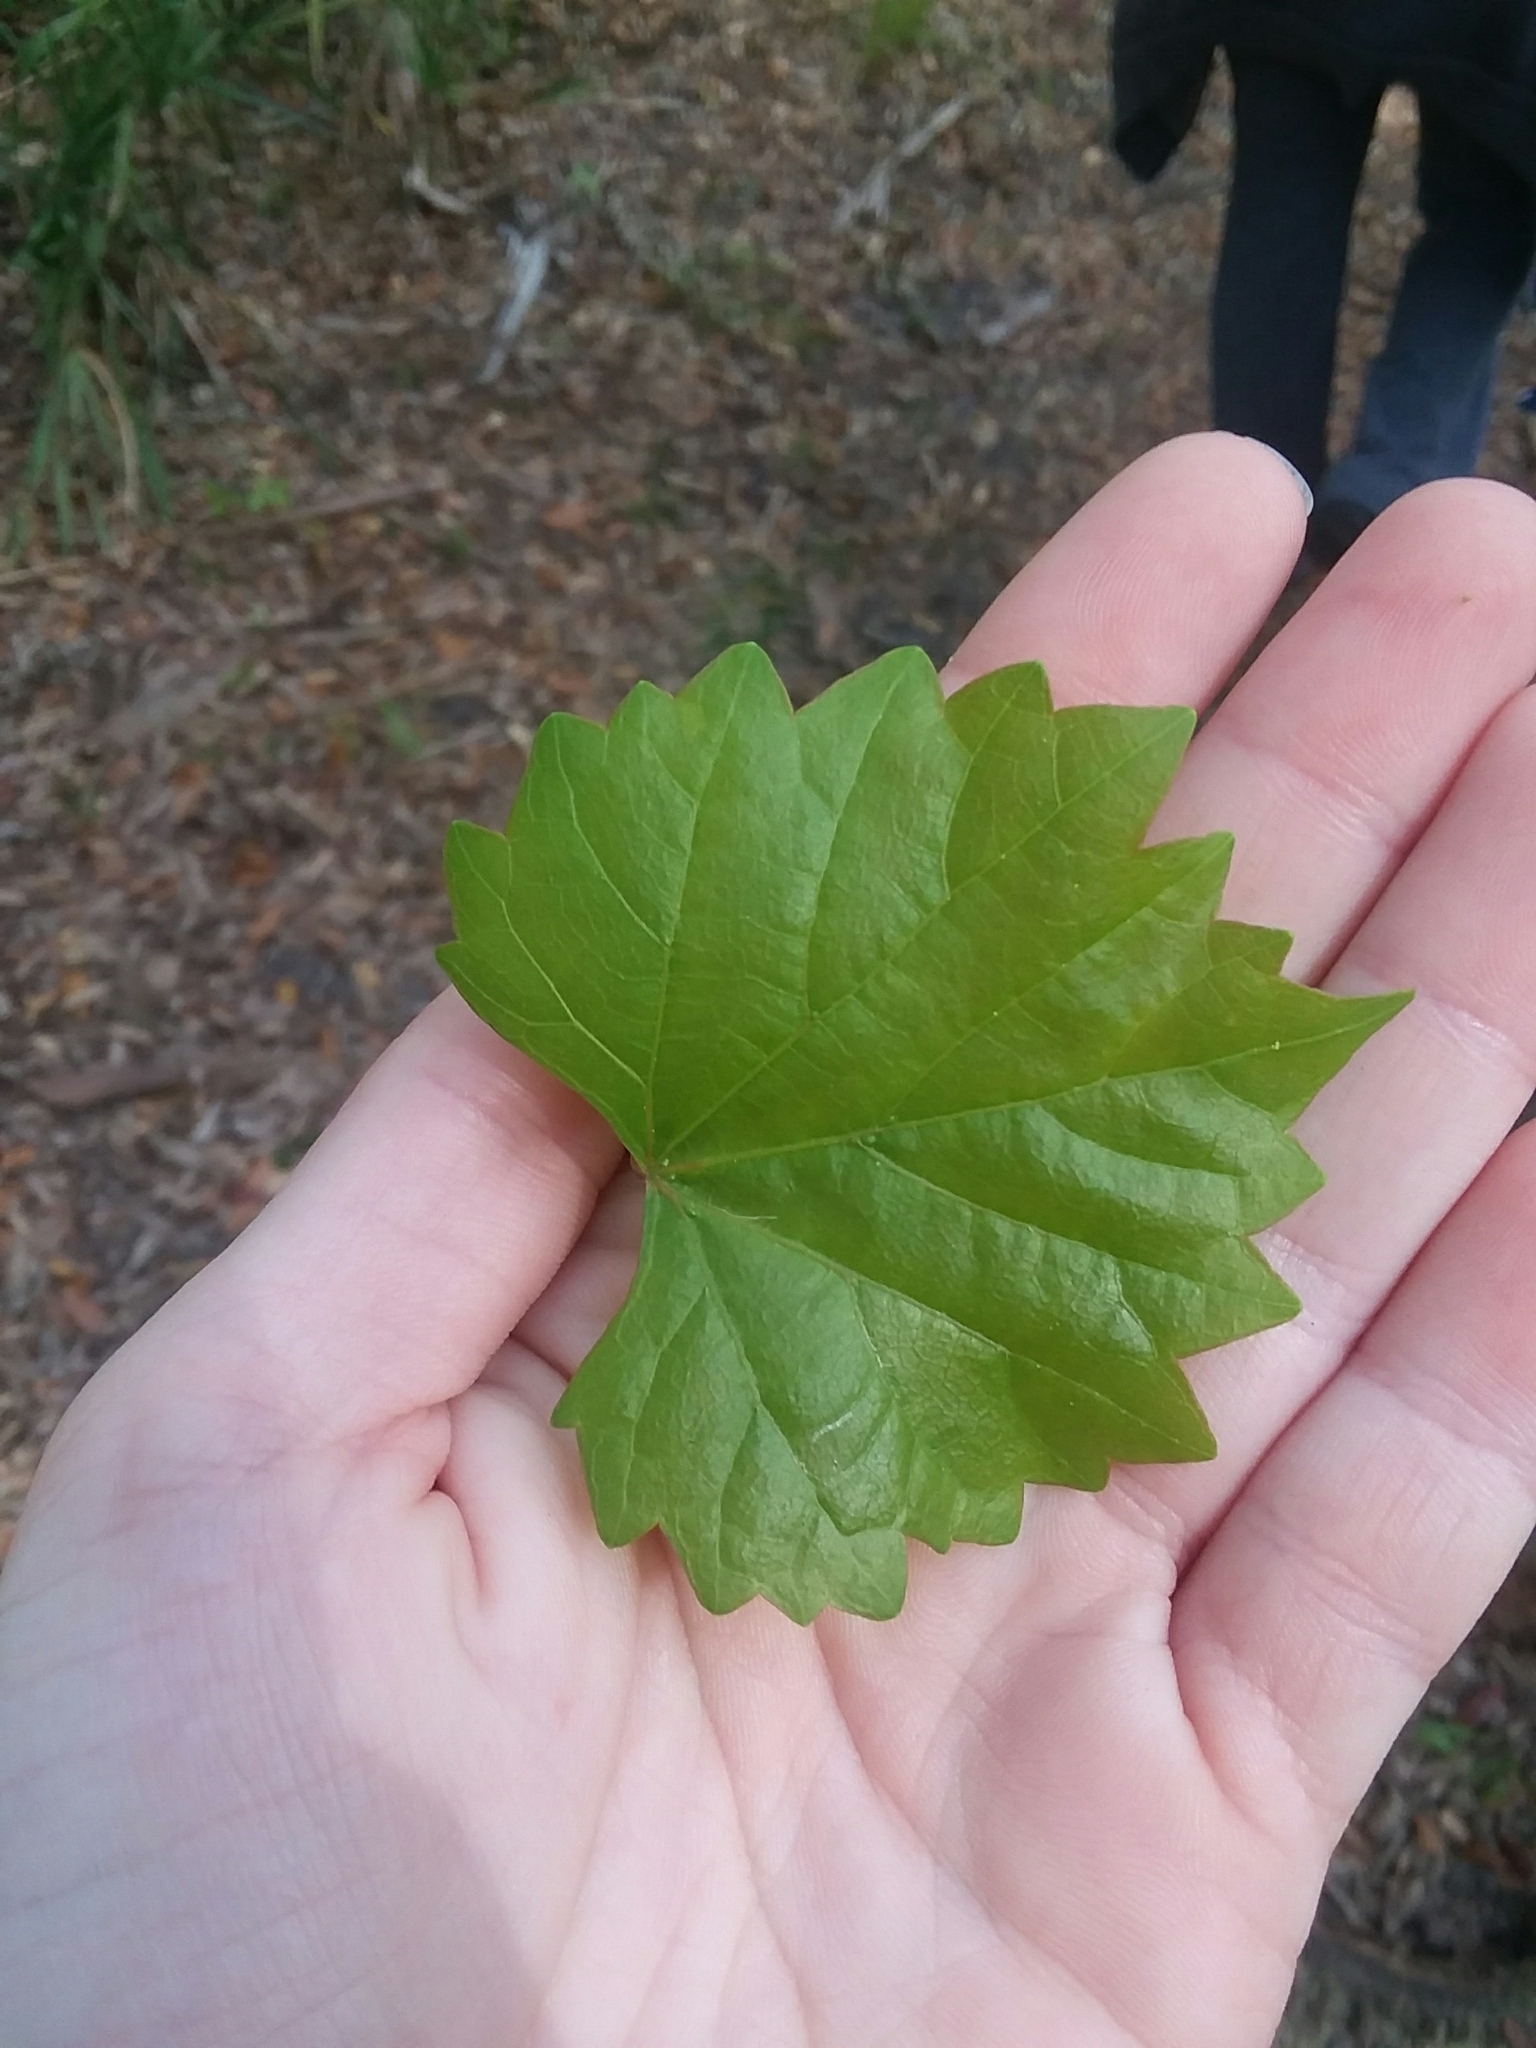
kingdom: Plantae
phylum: Tracheophyta
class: Magnoliopsida
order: Vitales
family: Vitaceae
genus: Vitis
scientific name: Vitis rotundifolia
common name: Muscadine grape
